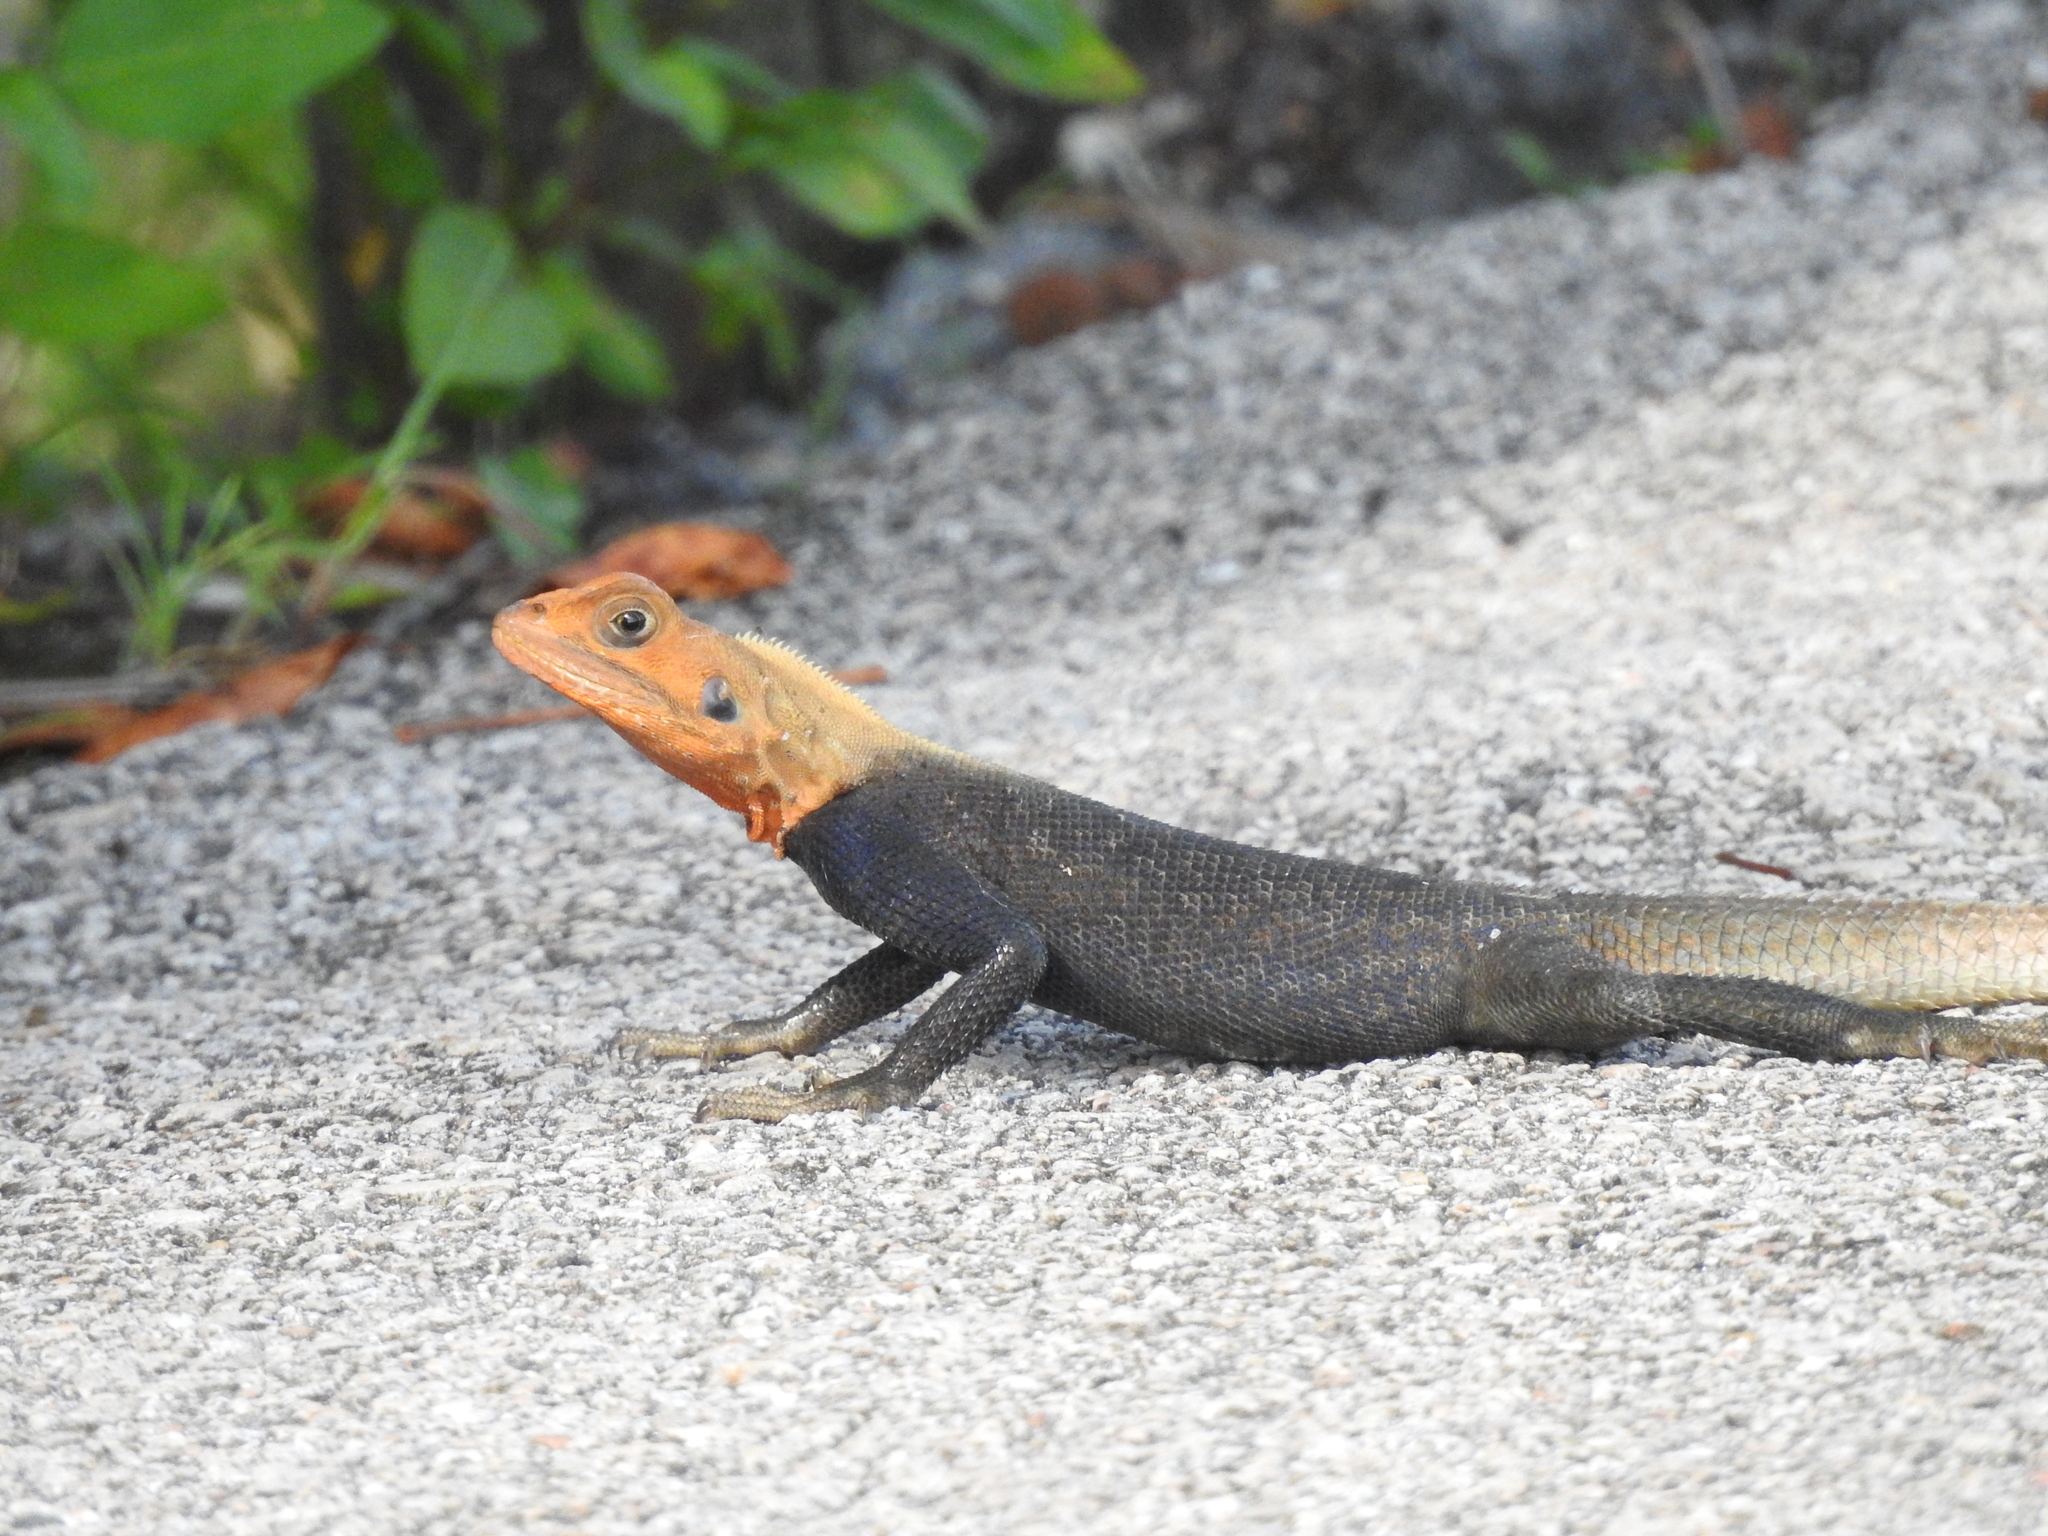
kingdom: Animalia
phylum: Chordata
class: Squamata
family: Agamidae
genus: Agama
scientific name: Agama picticauda
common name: Red-headed agama
